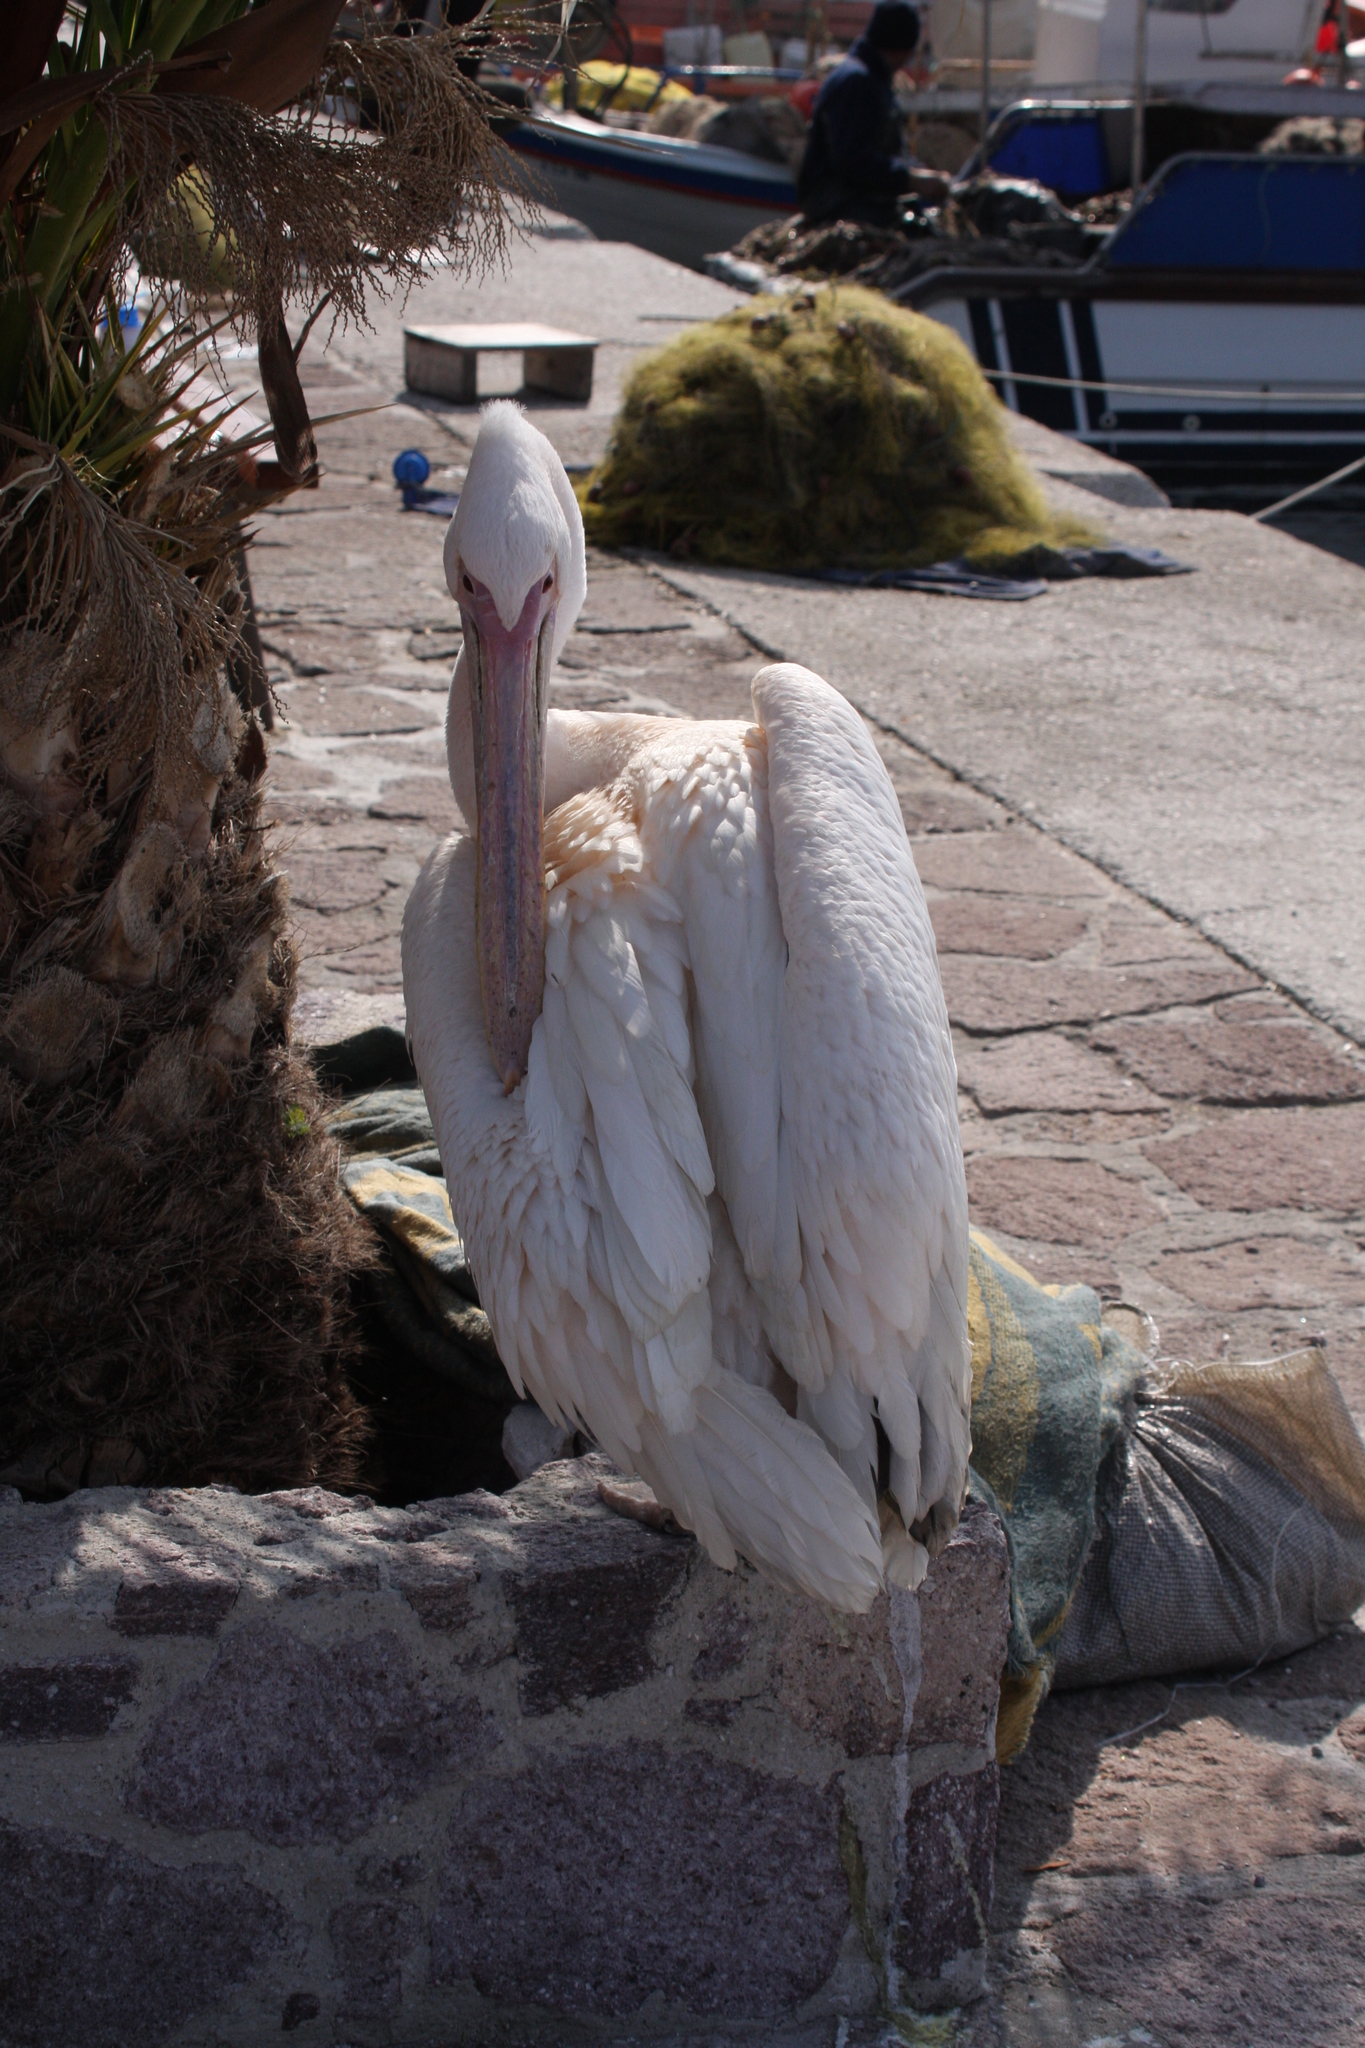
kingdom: Animalia
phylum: Chordata
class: Aves
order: Pelecaniformes
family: Pelecanidae
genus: Pelecanus
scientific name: Pelecanus onocrotalus
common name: Great white pelican
